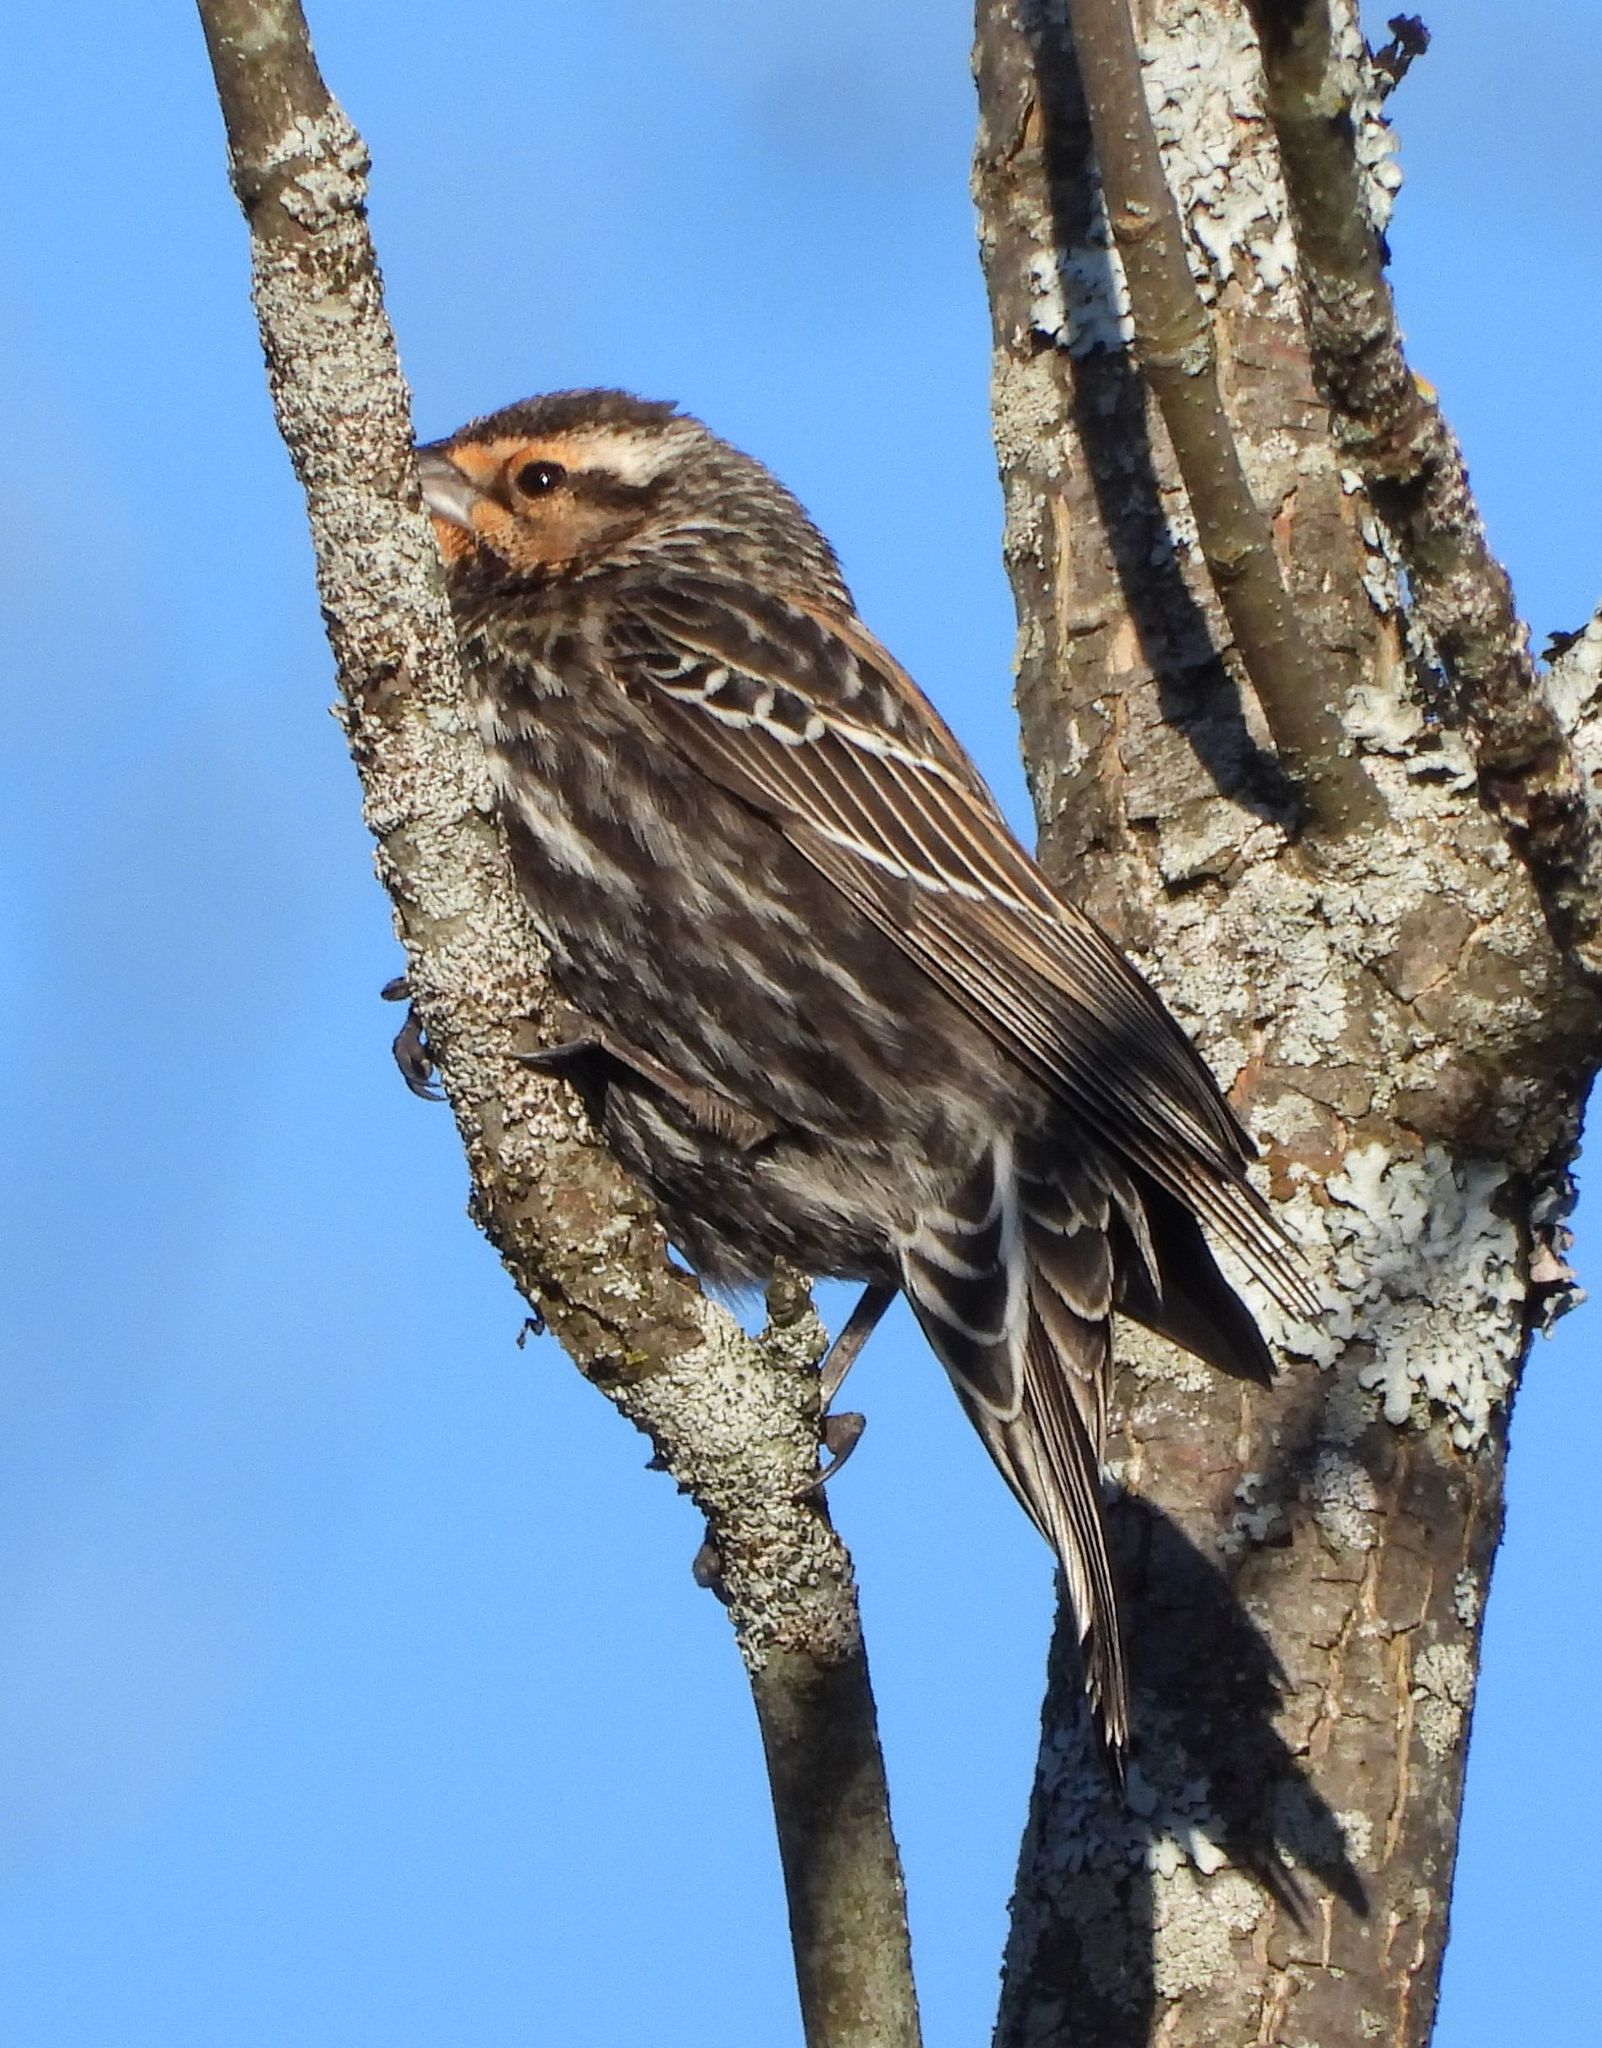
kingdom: Animalia
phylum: Chordata
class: Aves
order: Passeriformes
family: Icteridae
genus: Agelaius
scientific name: Agelaius phoeniceus
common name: Red-winged blackbird
